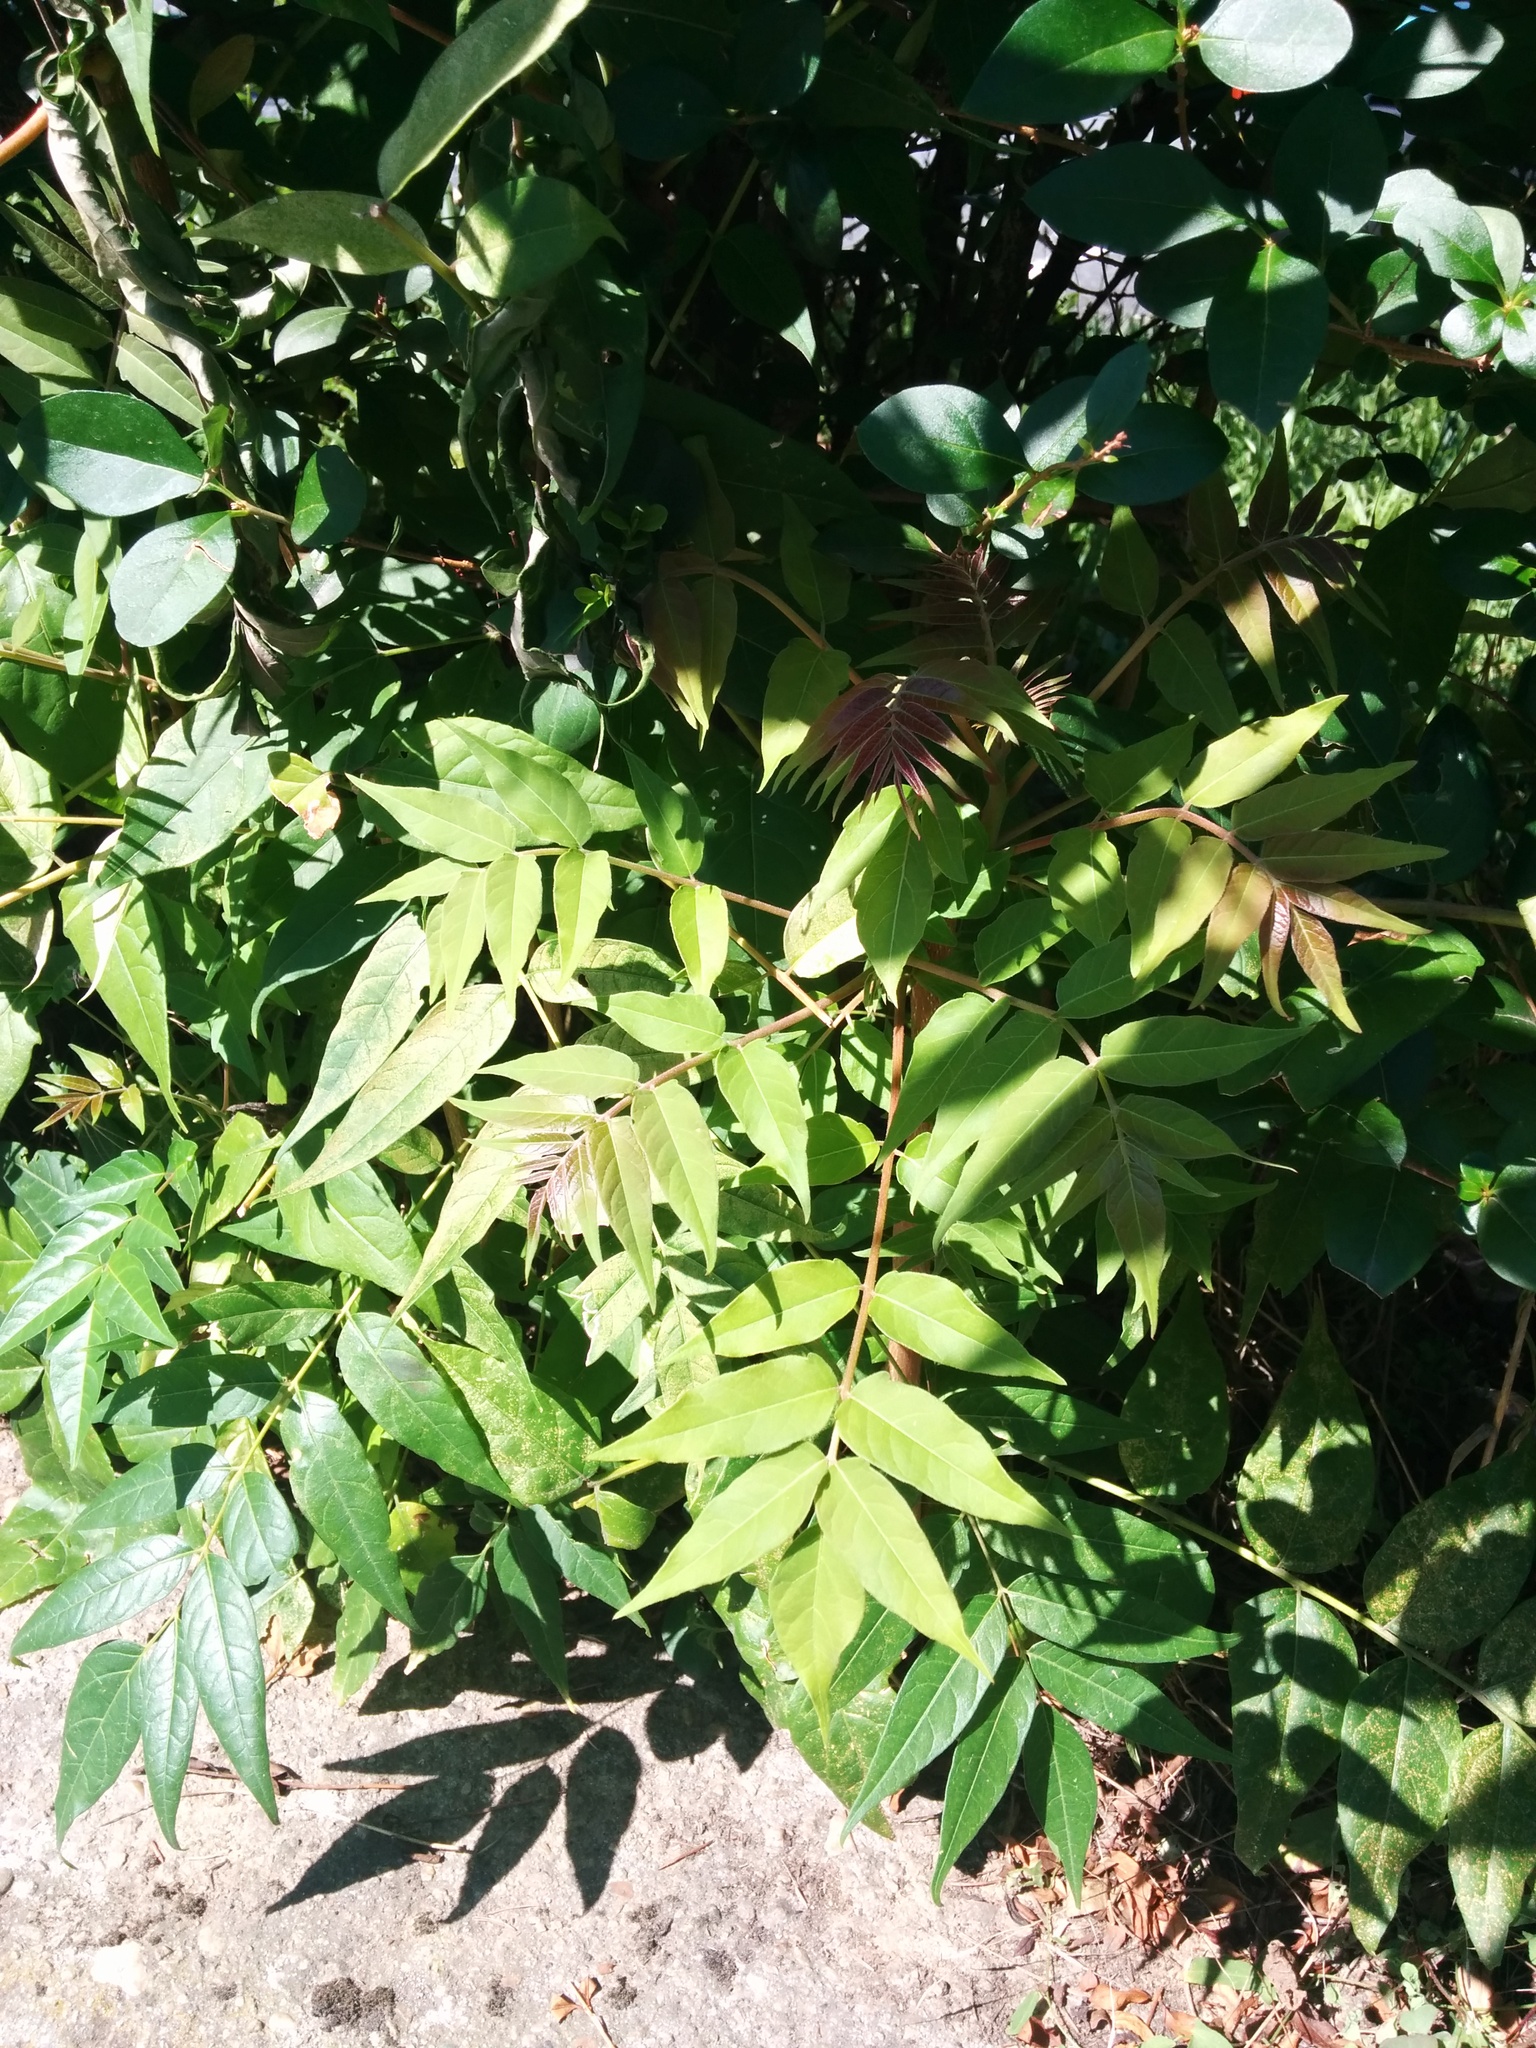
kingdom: Plantae
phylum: Tracheophyta
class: Magnoliopsida
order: Sapindales
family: Simaroubaceae
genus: Ailanthus
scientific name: Ailanthus altissima
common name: Tree-of-heaven
